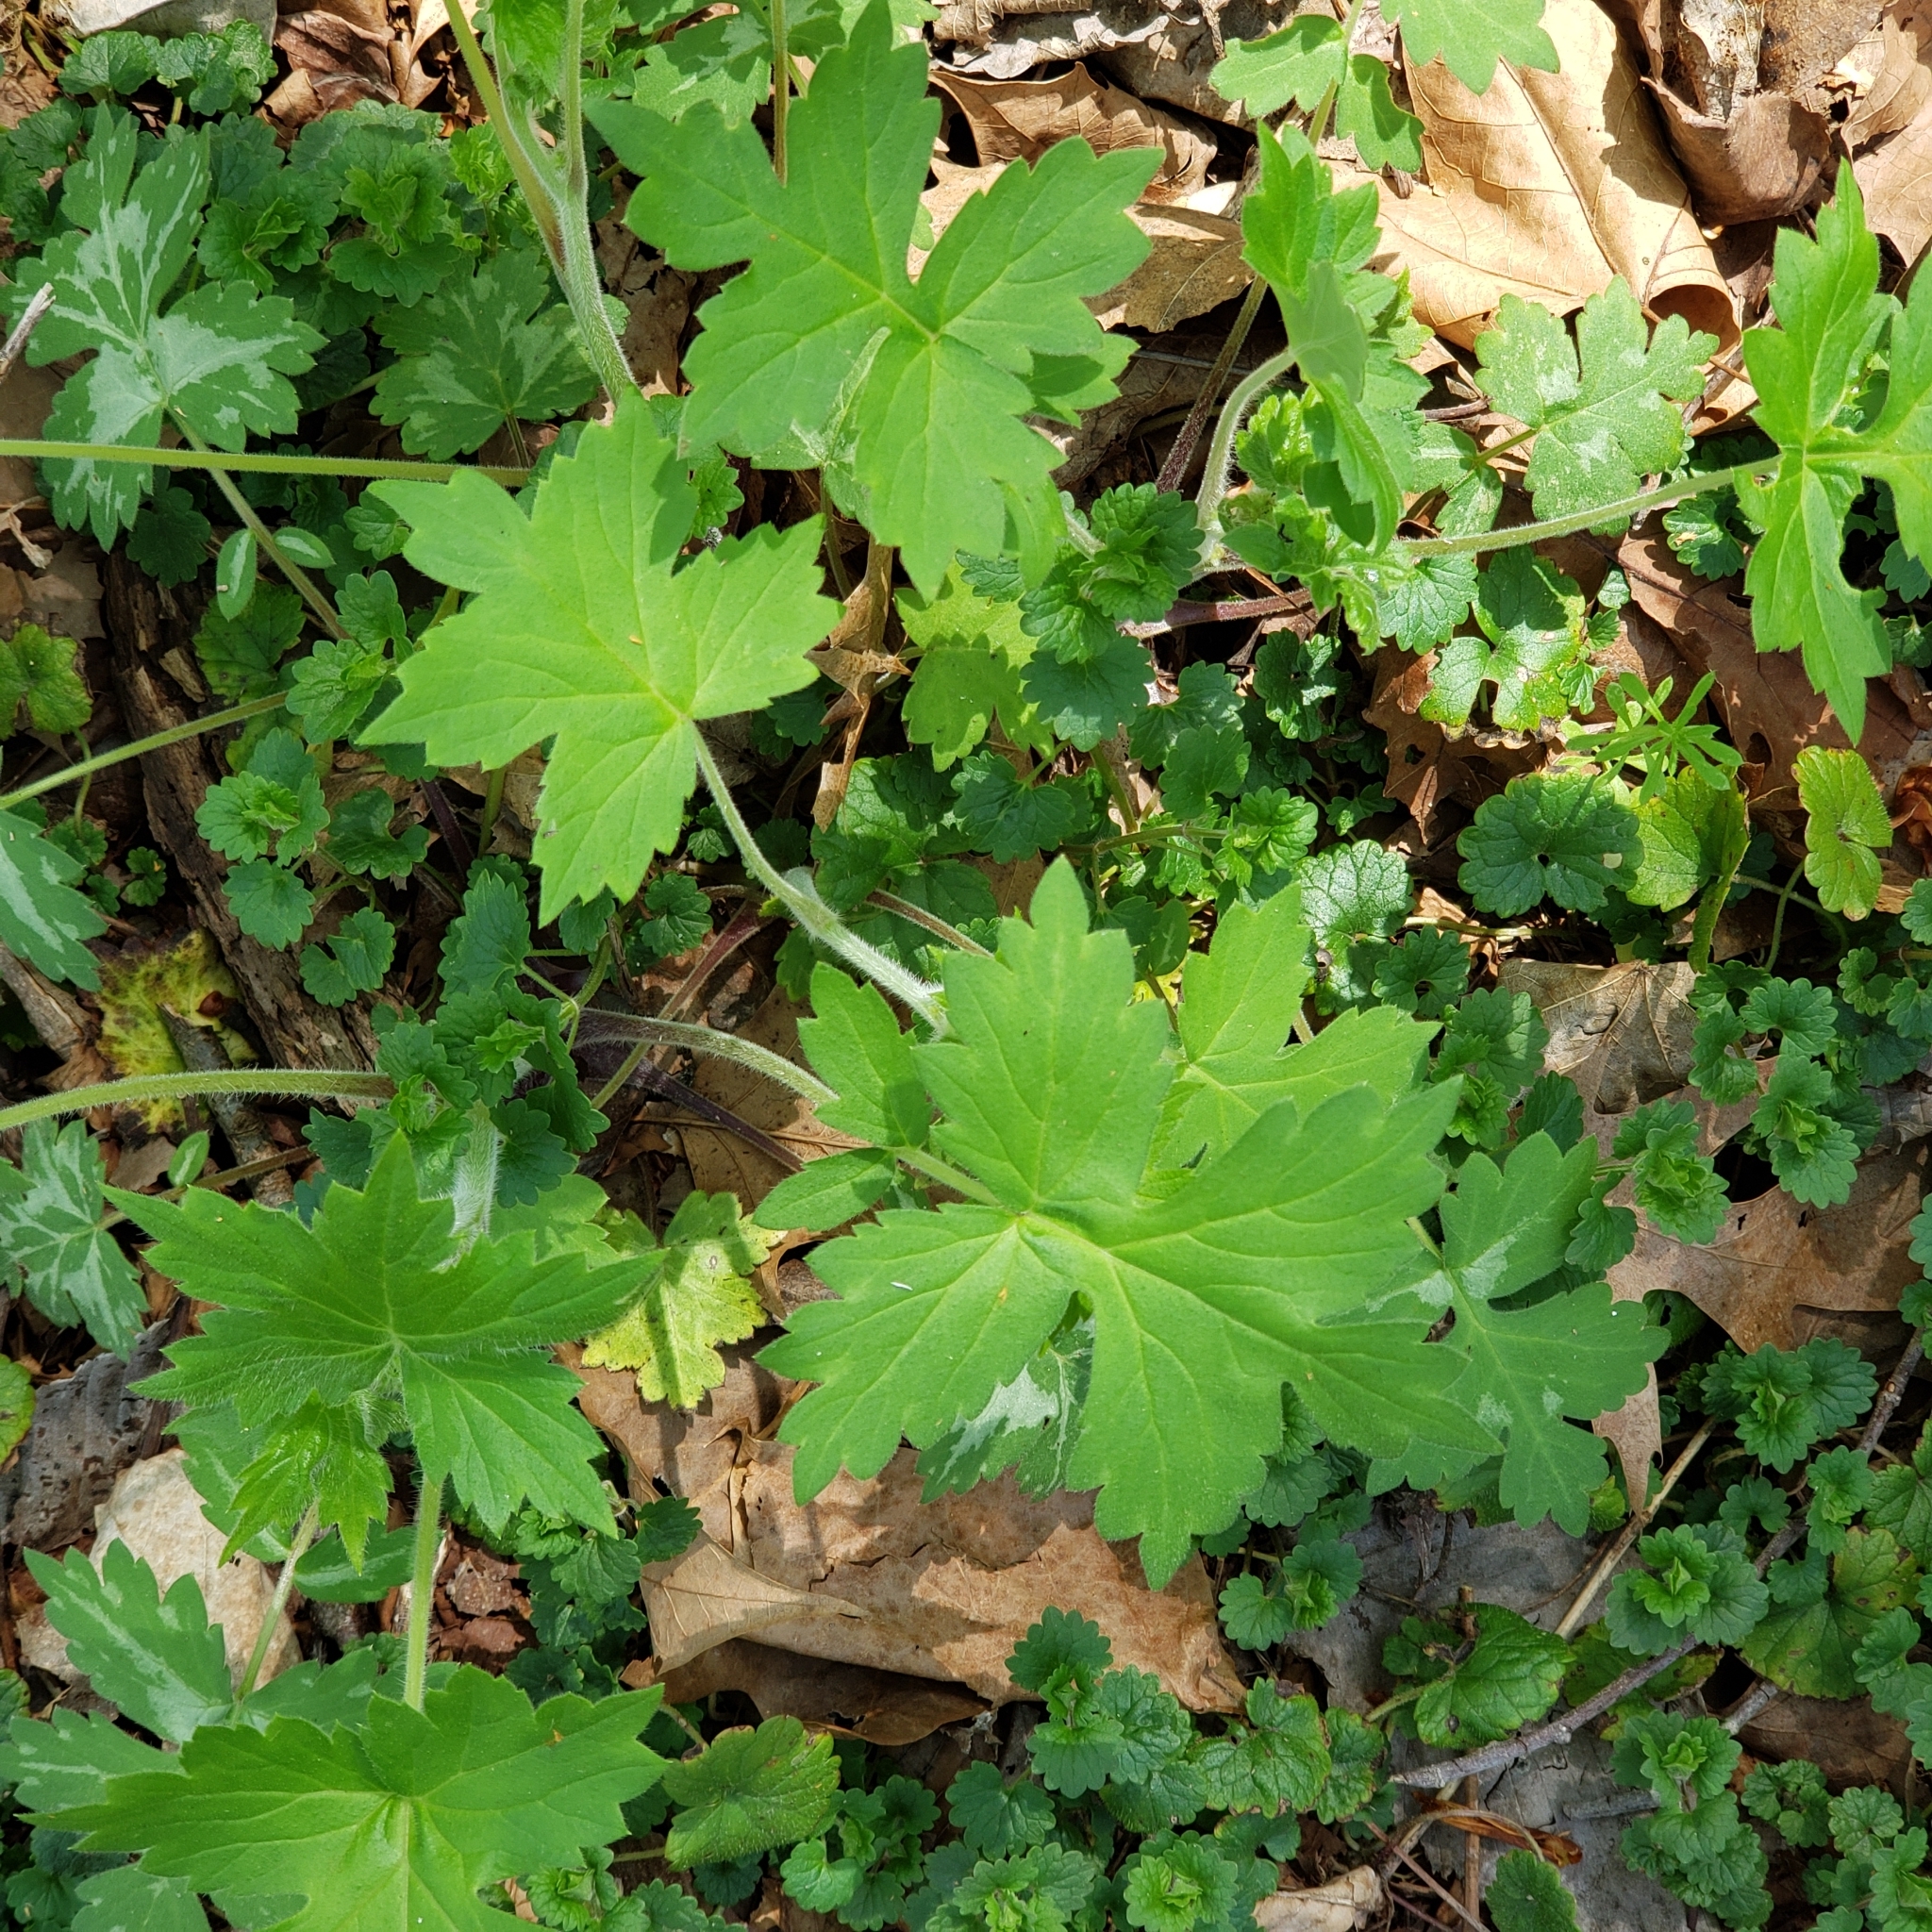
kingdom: Plantae
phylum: Tracheophyta
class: Magnoliopsida
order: Boraginales
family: Hydrophyllaceae
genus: Hydrophyllum
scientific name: Hydrophyllum appendiculatum
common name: Appendaged waterleaf
